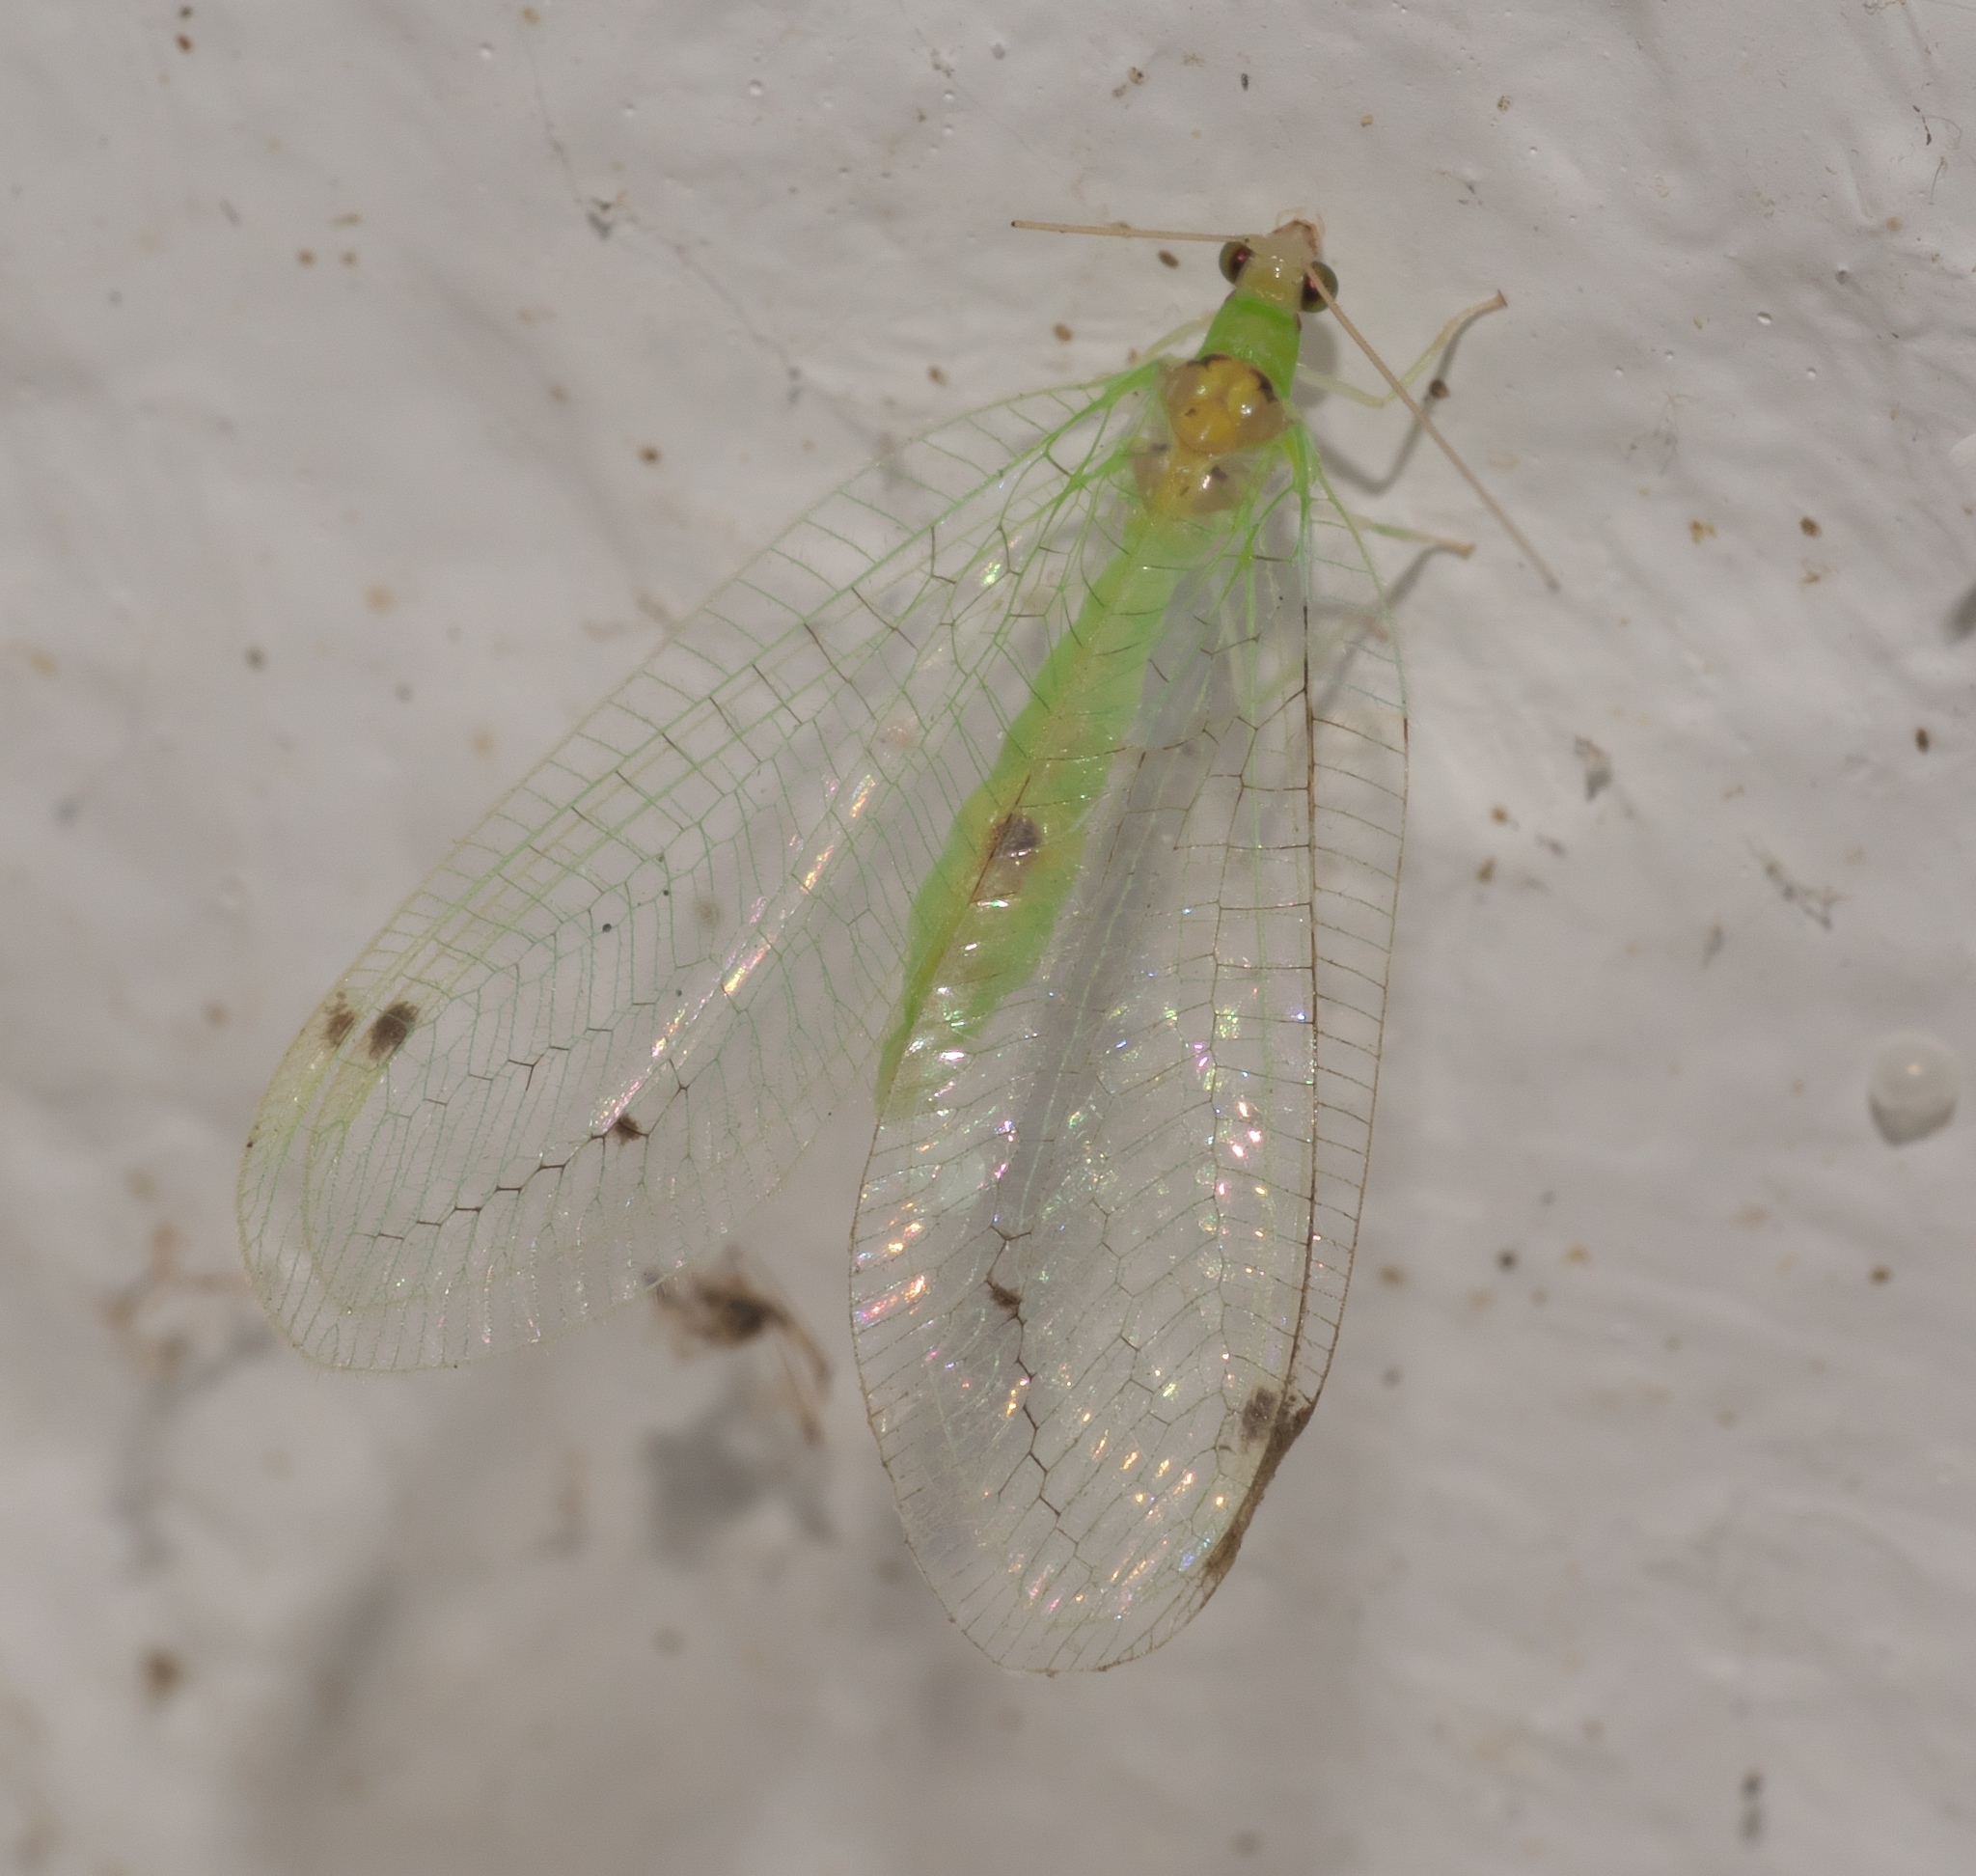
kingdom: Animalia
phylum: Arthropoda
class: Insecta
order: Neuroptera
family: Chrysopidae
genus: Leucochrysa
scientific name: Leucochrysa insularis
